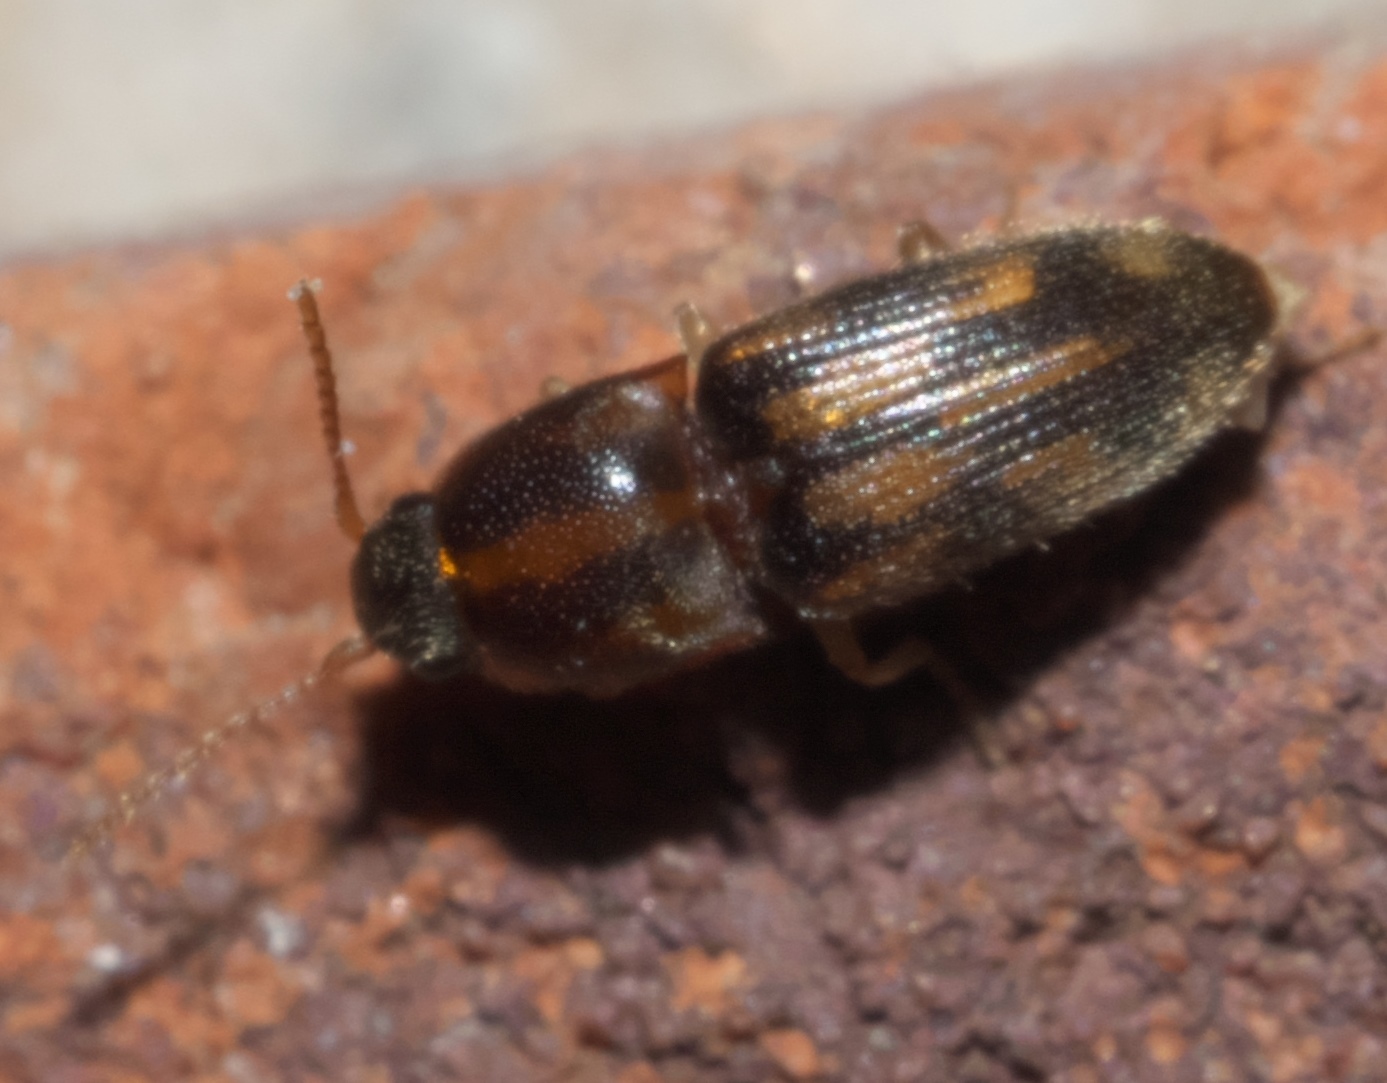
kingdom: Animalia
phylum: Arthropoda
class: Insecta
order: Coleoptera
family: Elateridae
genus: Monocrepidius
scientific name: Monocrepidius bellus
